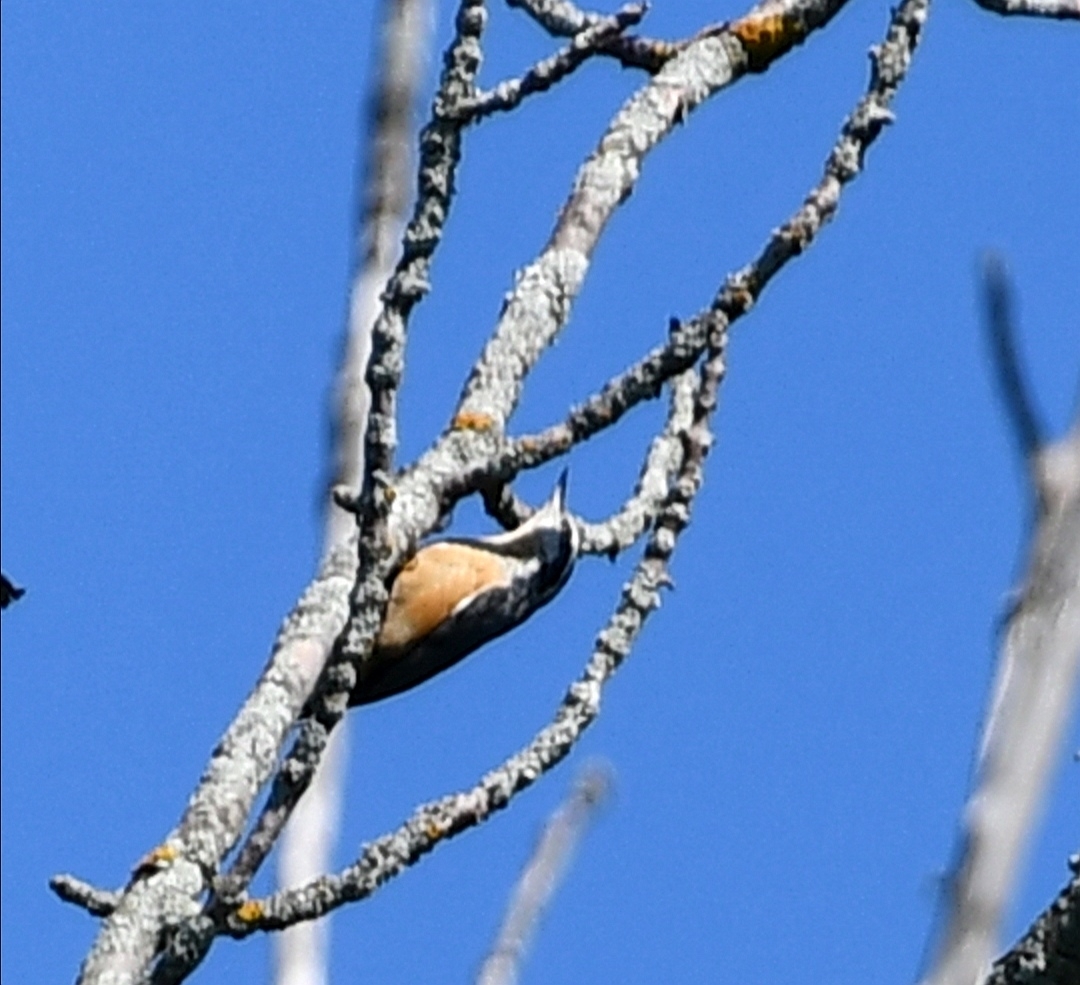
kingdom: Animalia
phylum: Chordata
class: Aves
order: Passeriformes
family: Sittidae
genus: Sitta
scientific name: Sitta canadensis
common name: Red-breasted nuthatch
